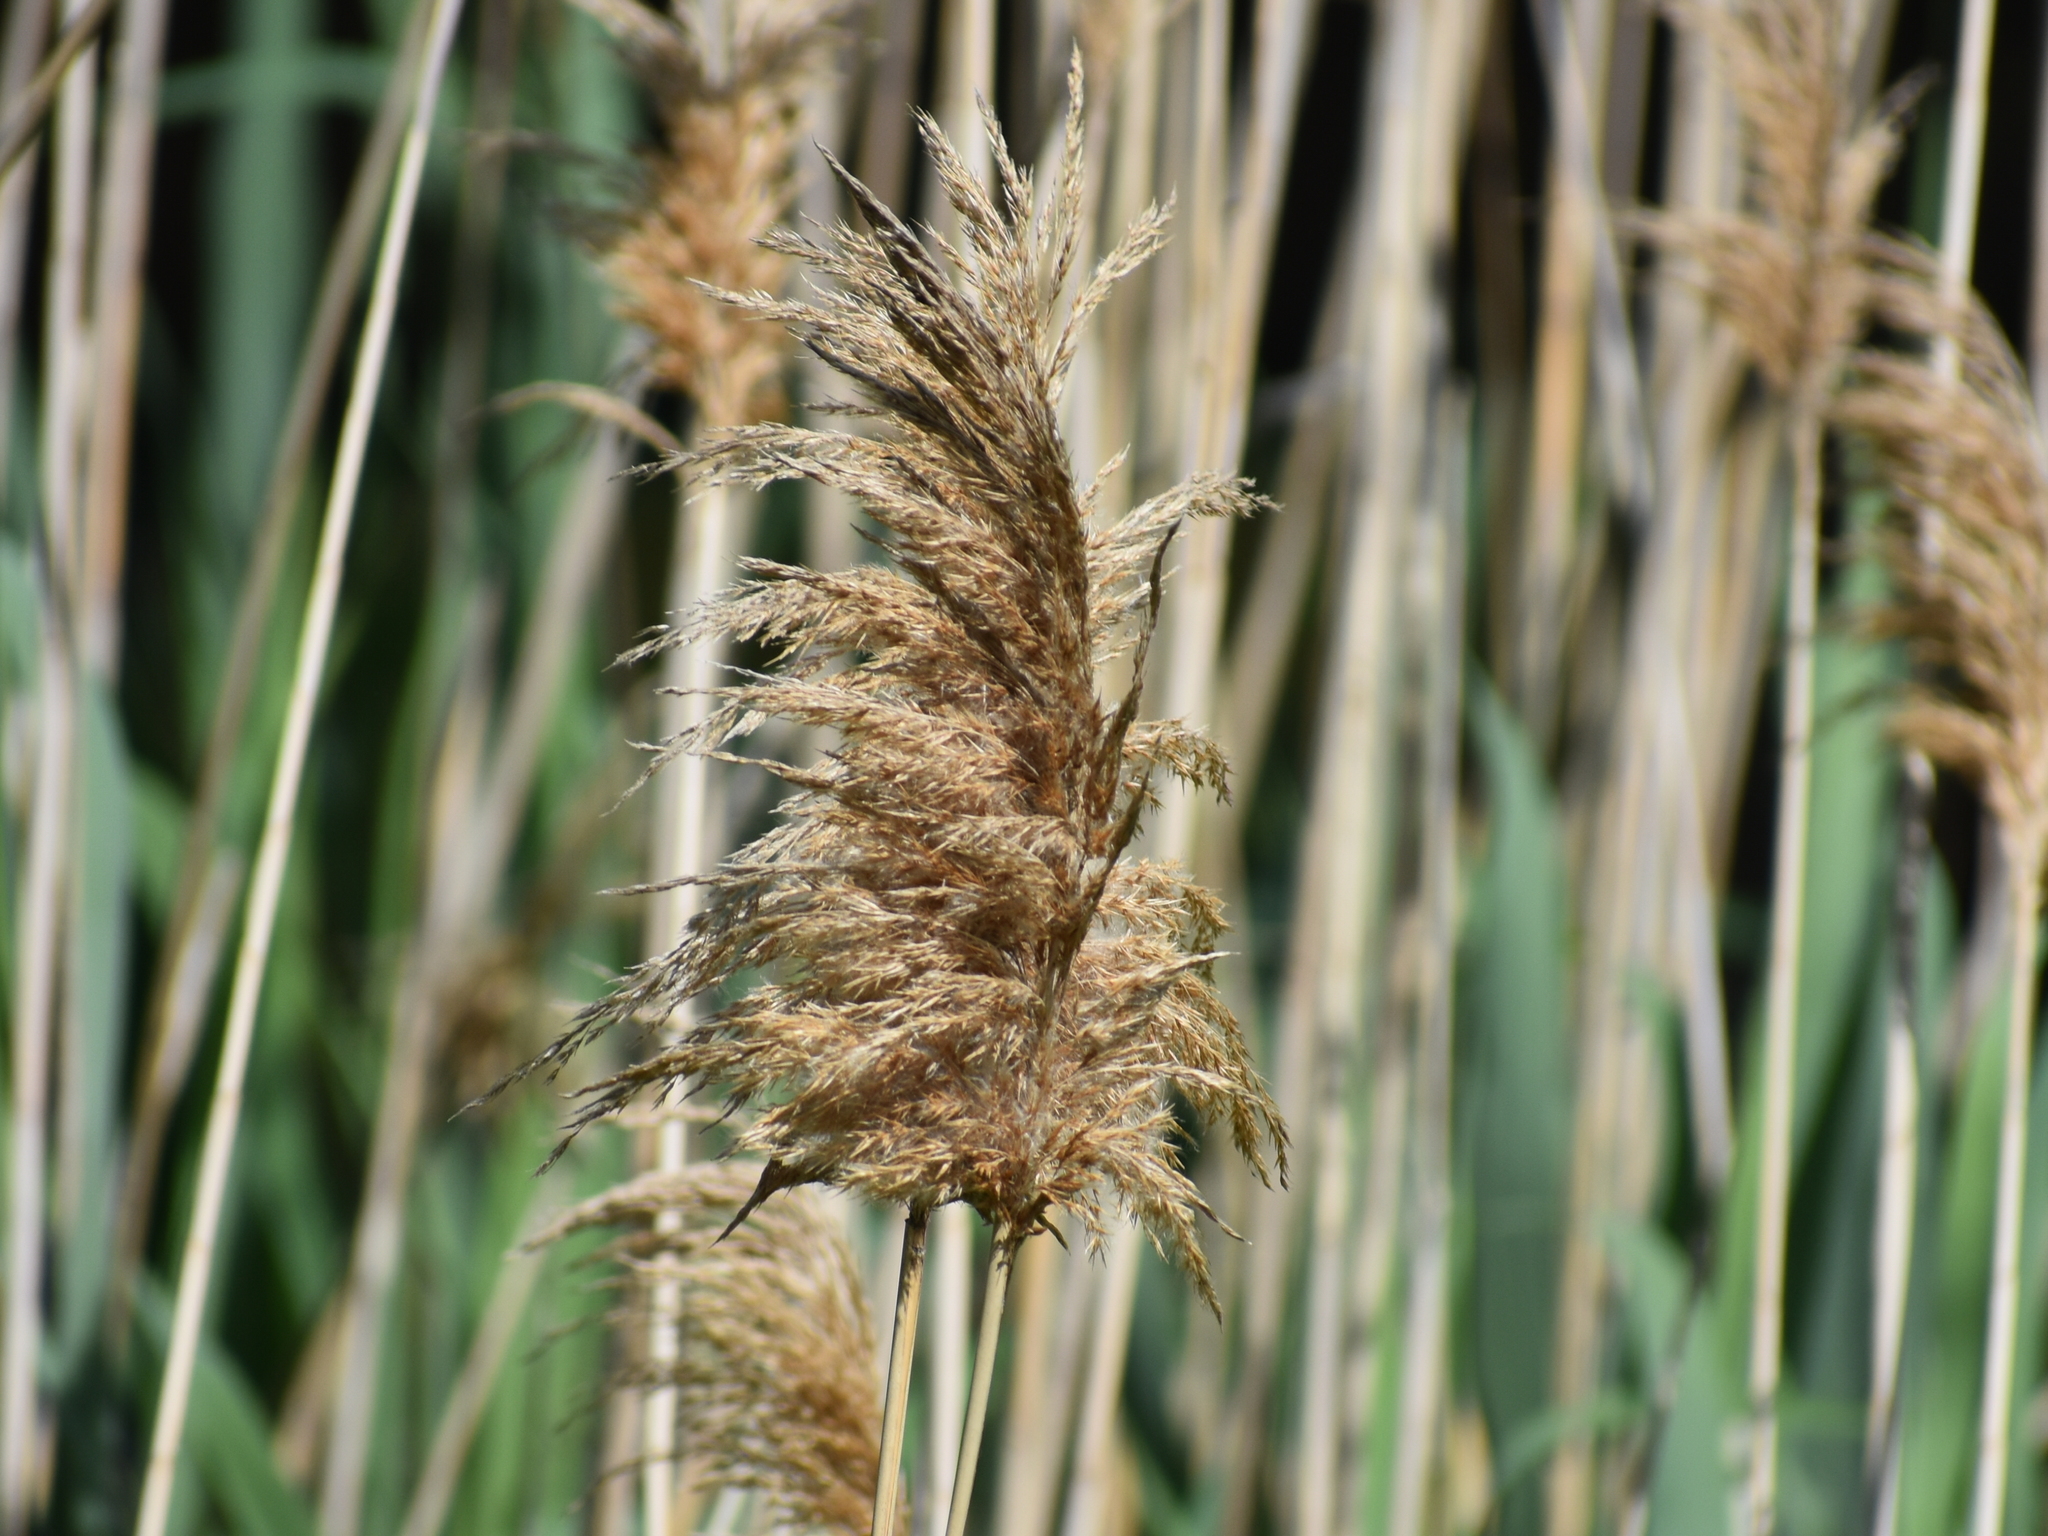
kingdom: Plantae
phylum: Tracheophyta
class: Liliopsida
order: Poales
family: Poaceae
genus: Phragmites
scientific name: Phragmites australis
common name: Common reed
